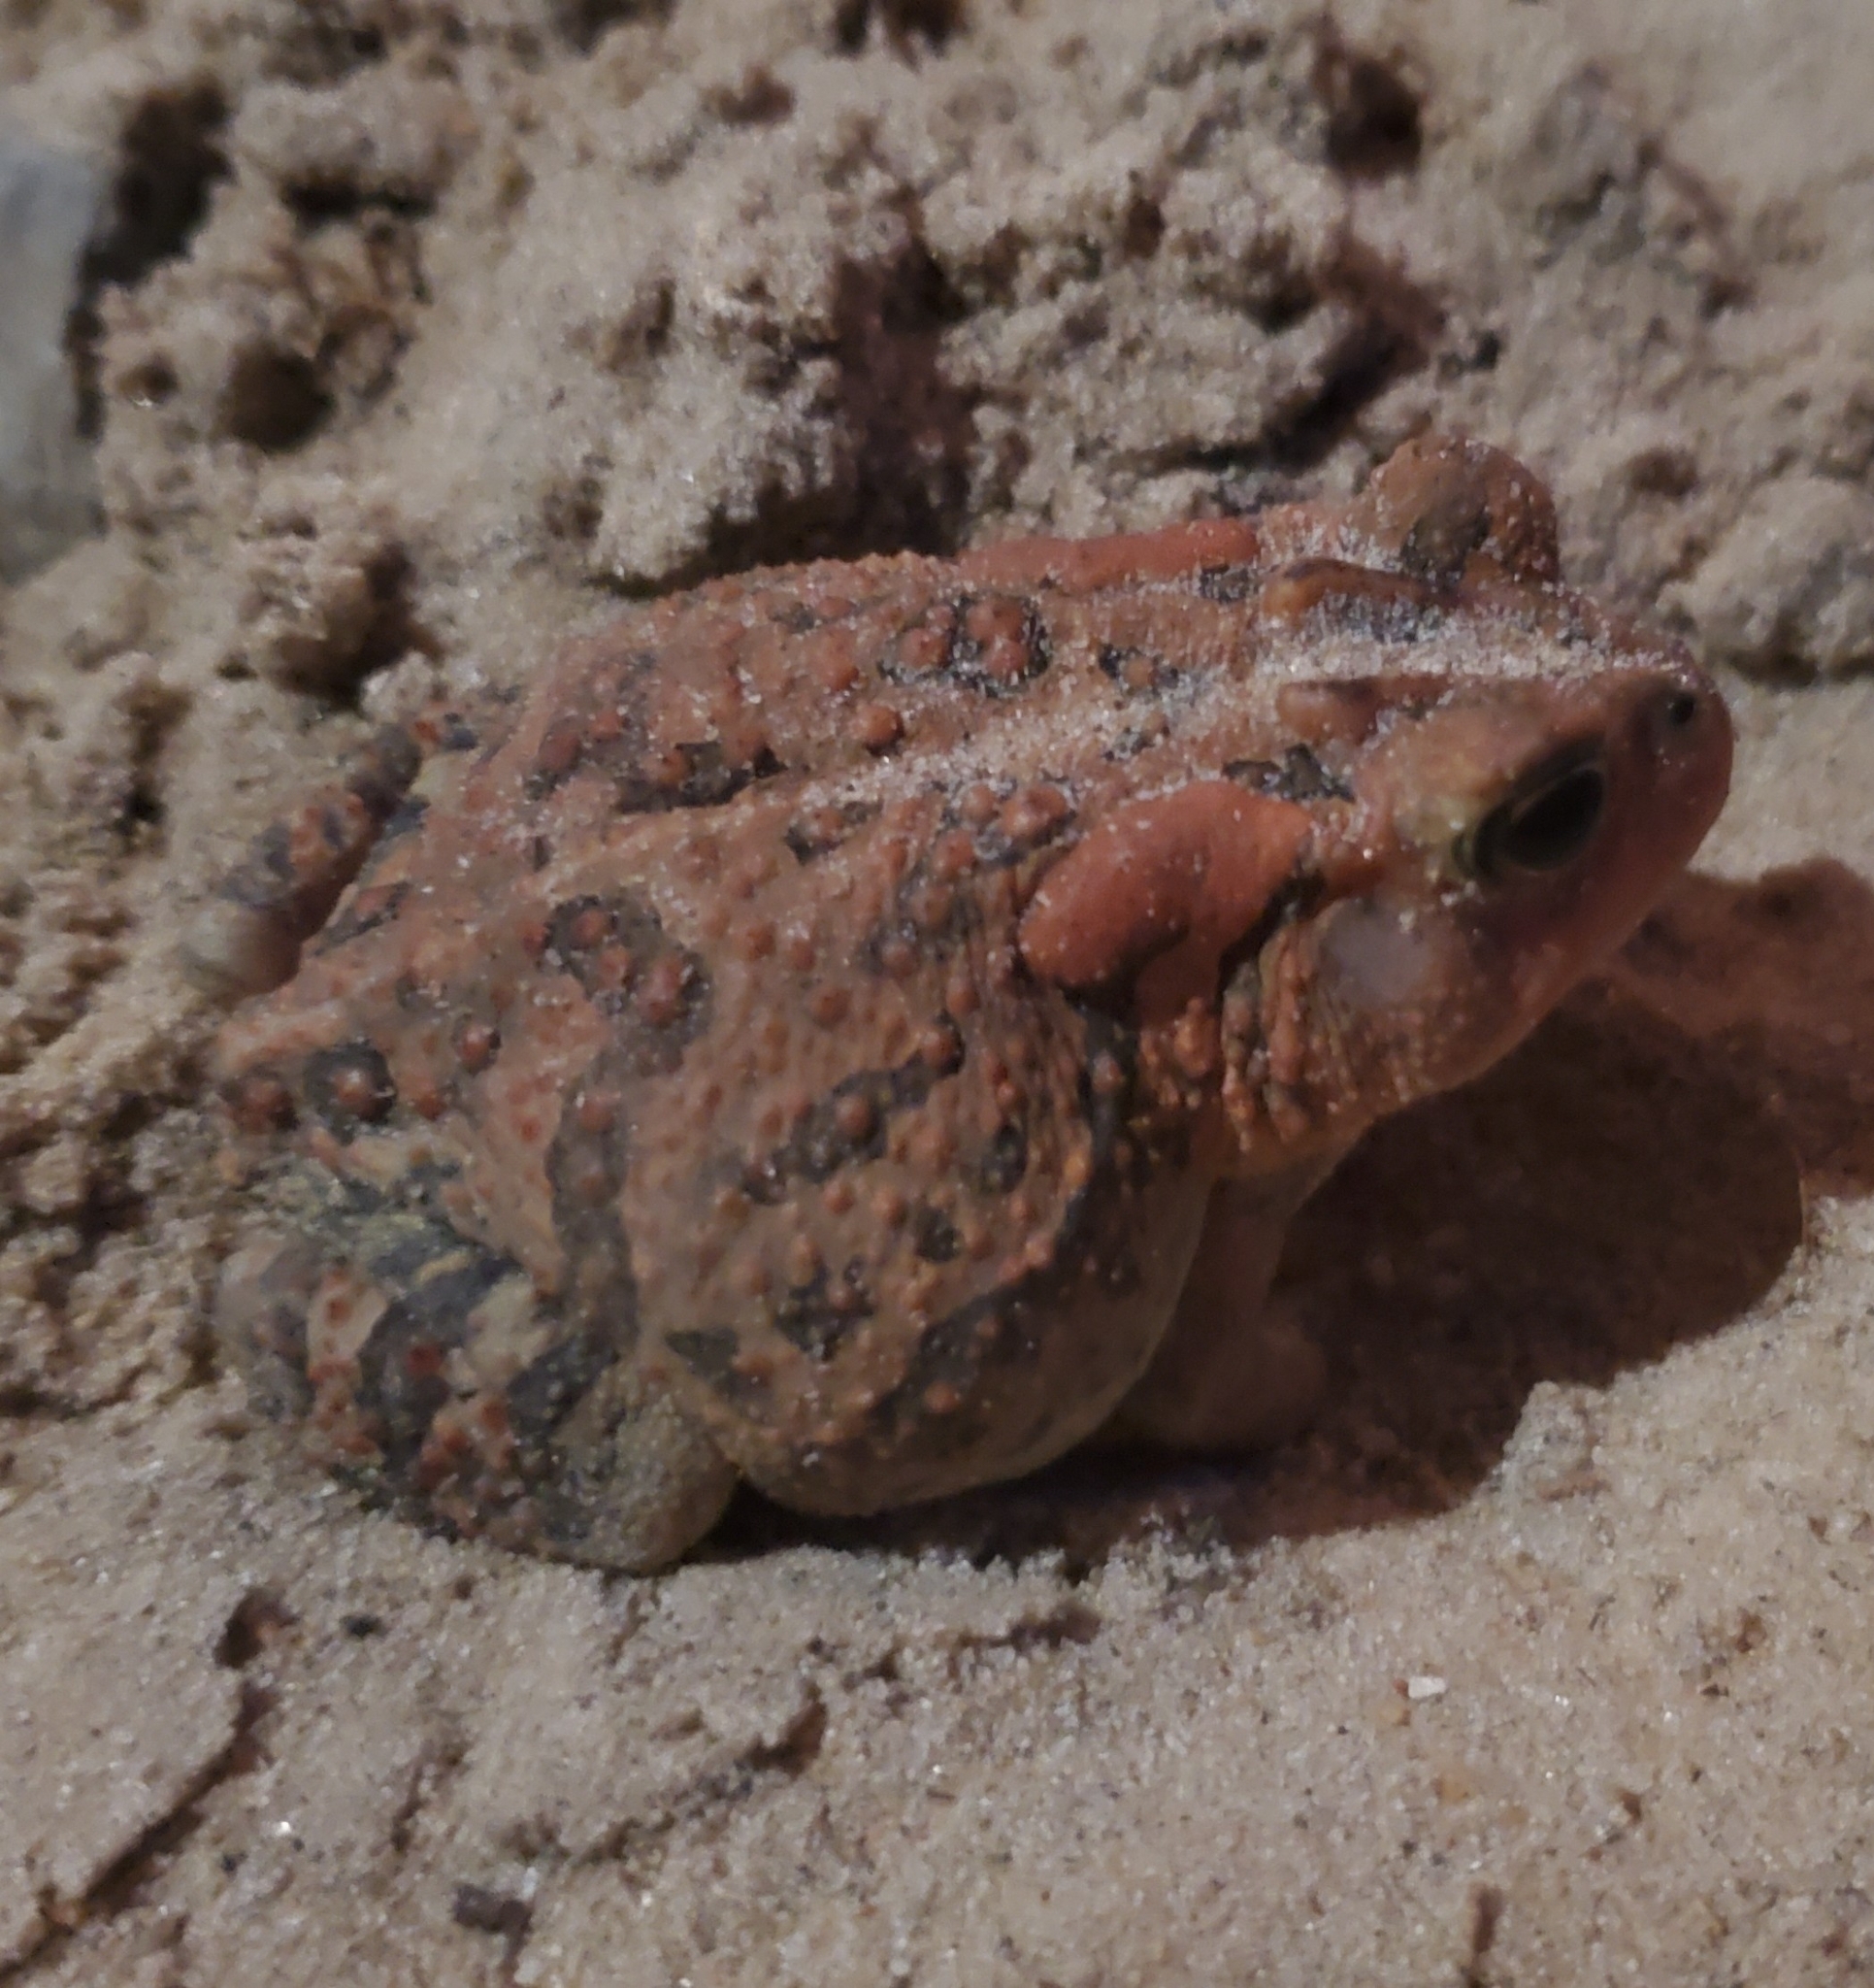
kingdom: Animalia
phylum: Chordata
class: Amphibia
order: Anura
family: Bufonidae
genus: Anaxyrus
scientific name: Anaxyrus terrestris
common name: Southern toad
